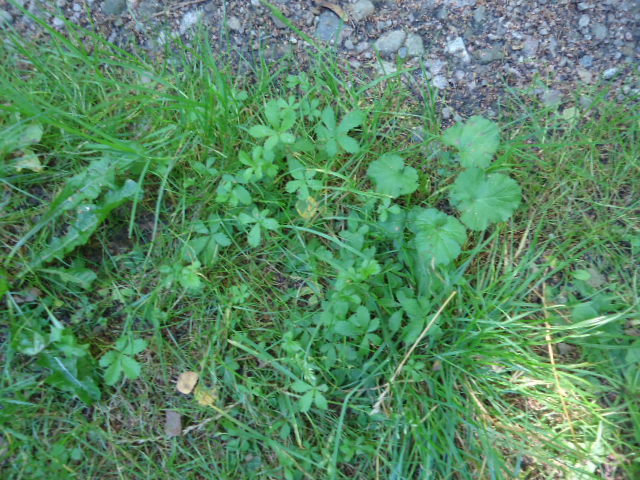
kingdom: Plantae
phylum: Tracheophyta
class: Magnoliopsida
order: Rosales
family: Rosaceae
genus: Potentilla
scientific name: Potentilla reptans
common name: Creeping cinquefoil
